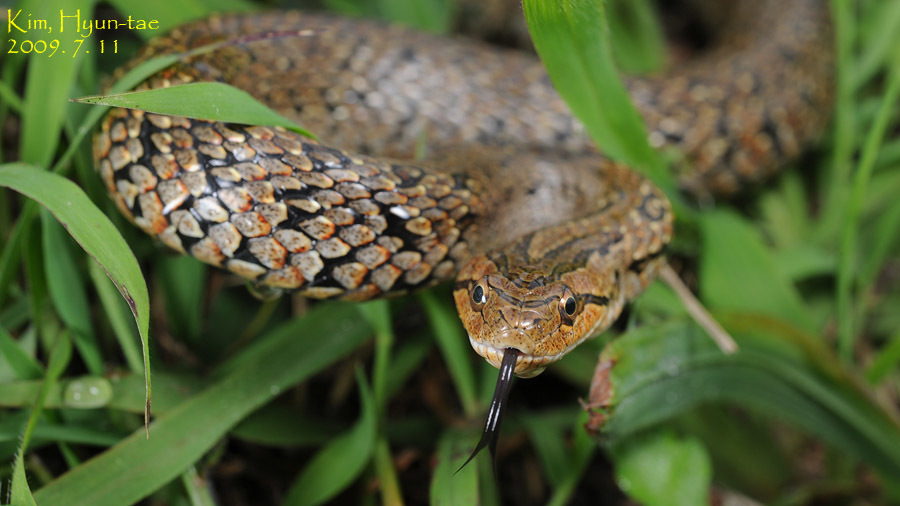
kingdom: Animalia
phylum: Chordata
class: Squamata
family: Colubridae
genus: Oocatochus
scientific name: Oocatochus rufodorsatus
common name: Frog-eating rat snake
